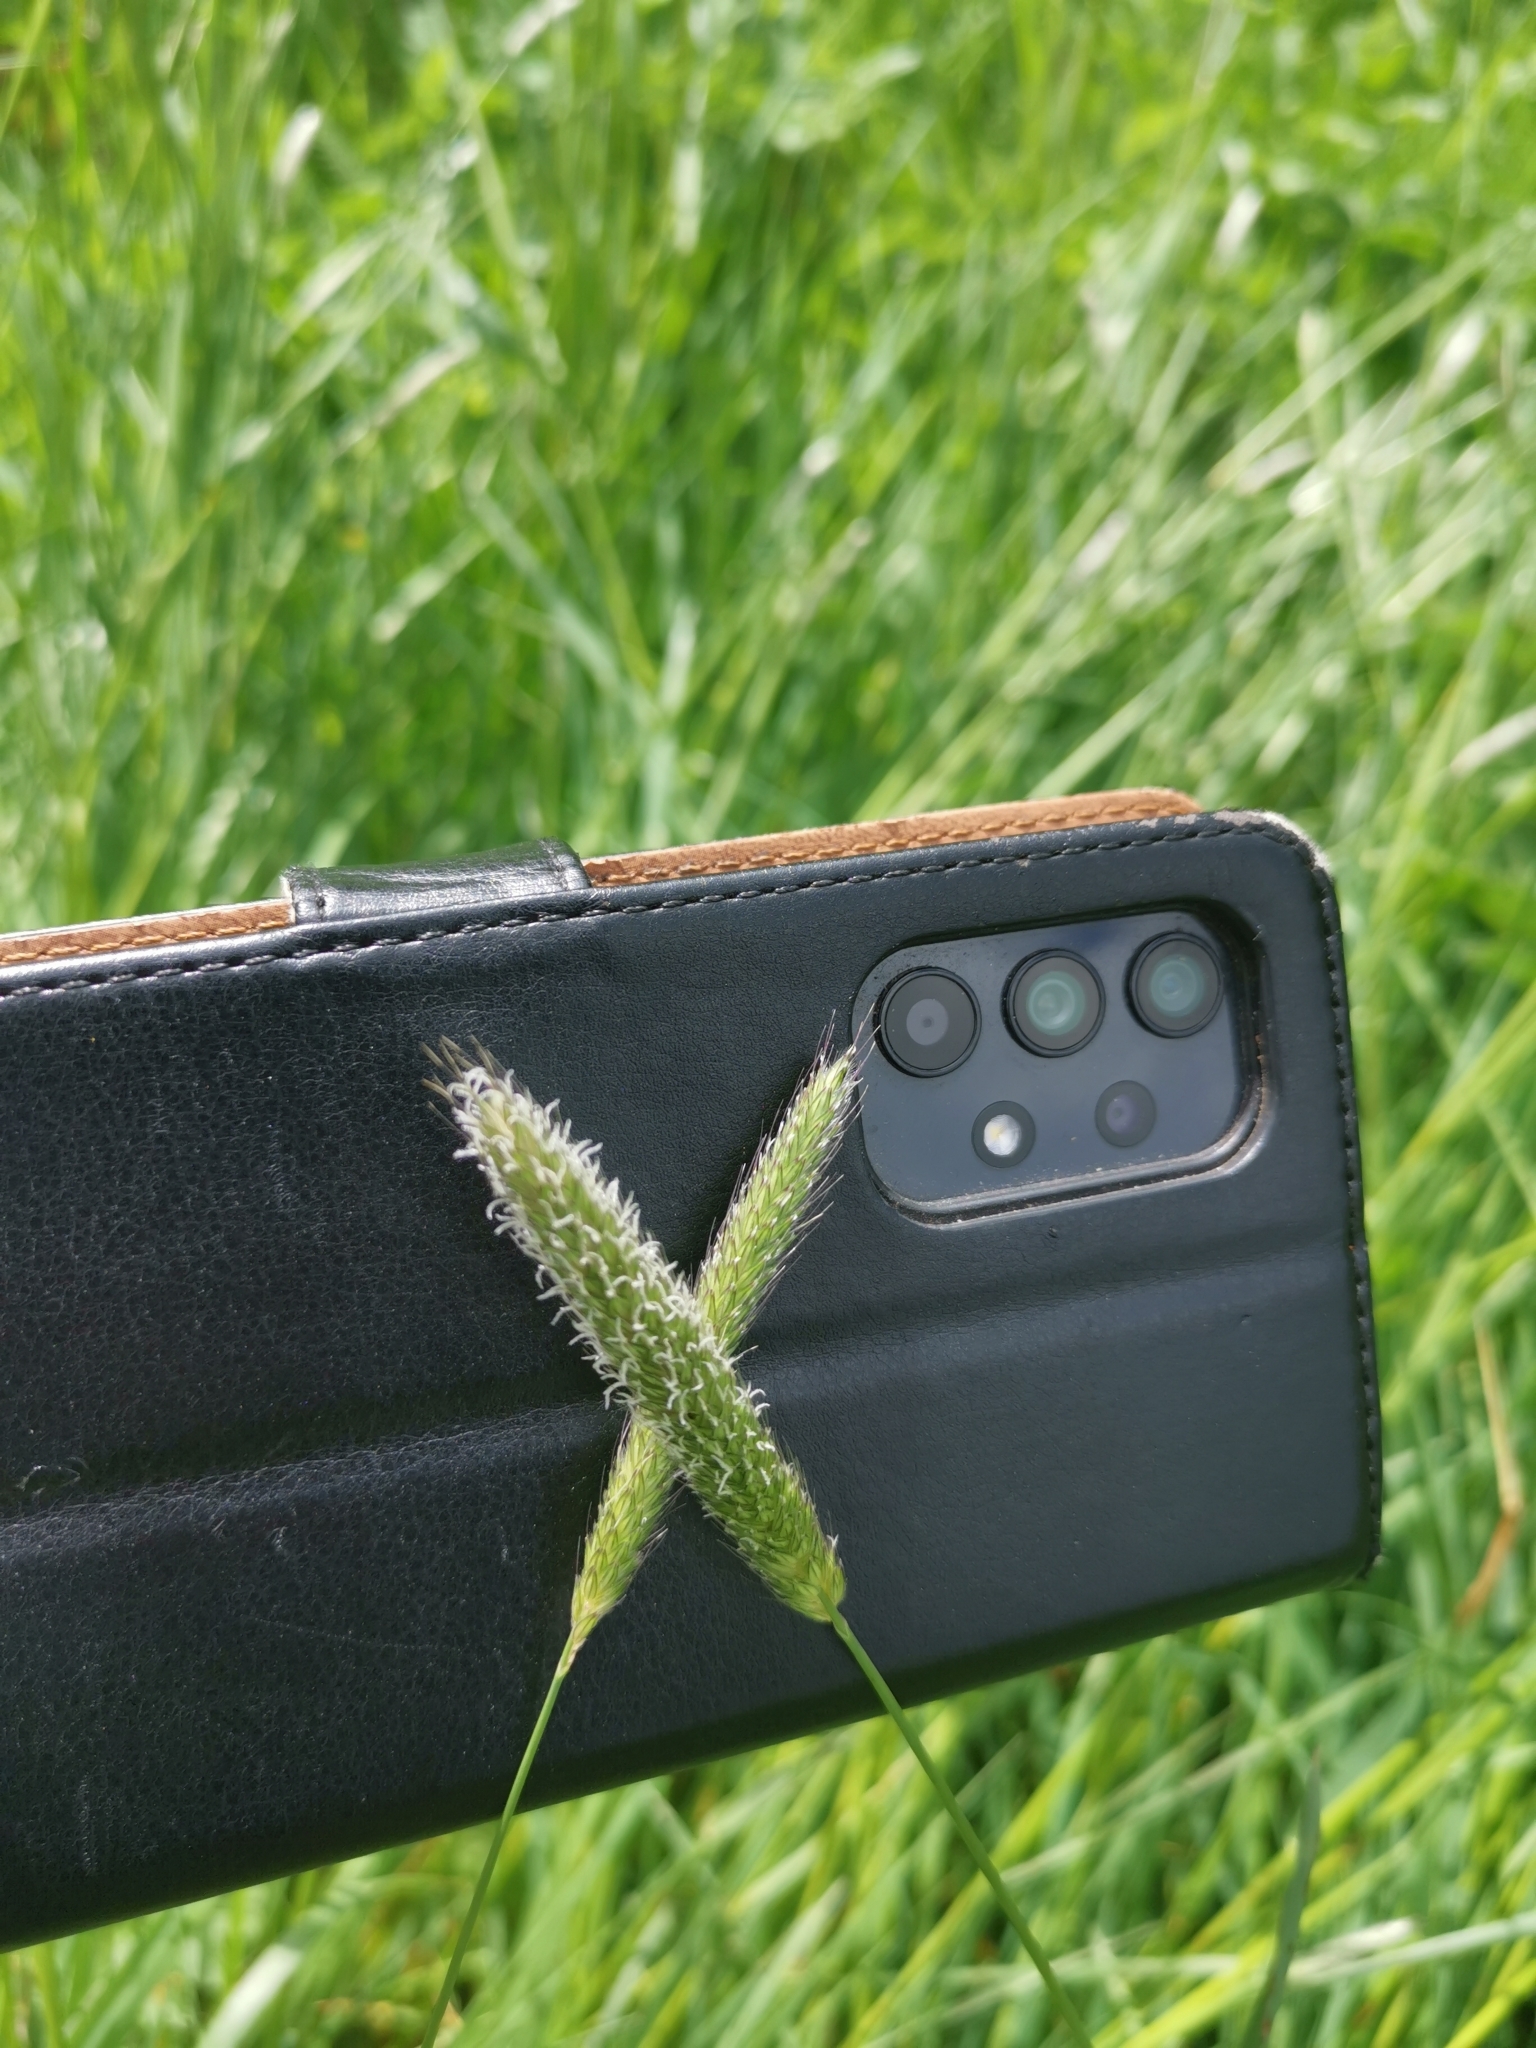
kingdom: Plantae
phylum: Tracheophyta
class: Liliopsida
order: Poales
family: Poaceae
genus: Alopecurus
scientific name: Alopecurus pratensis
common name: Meadow foxtail
